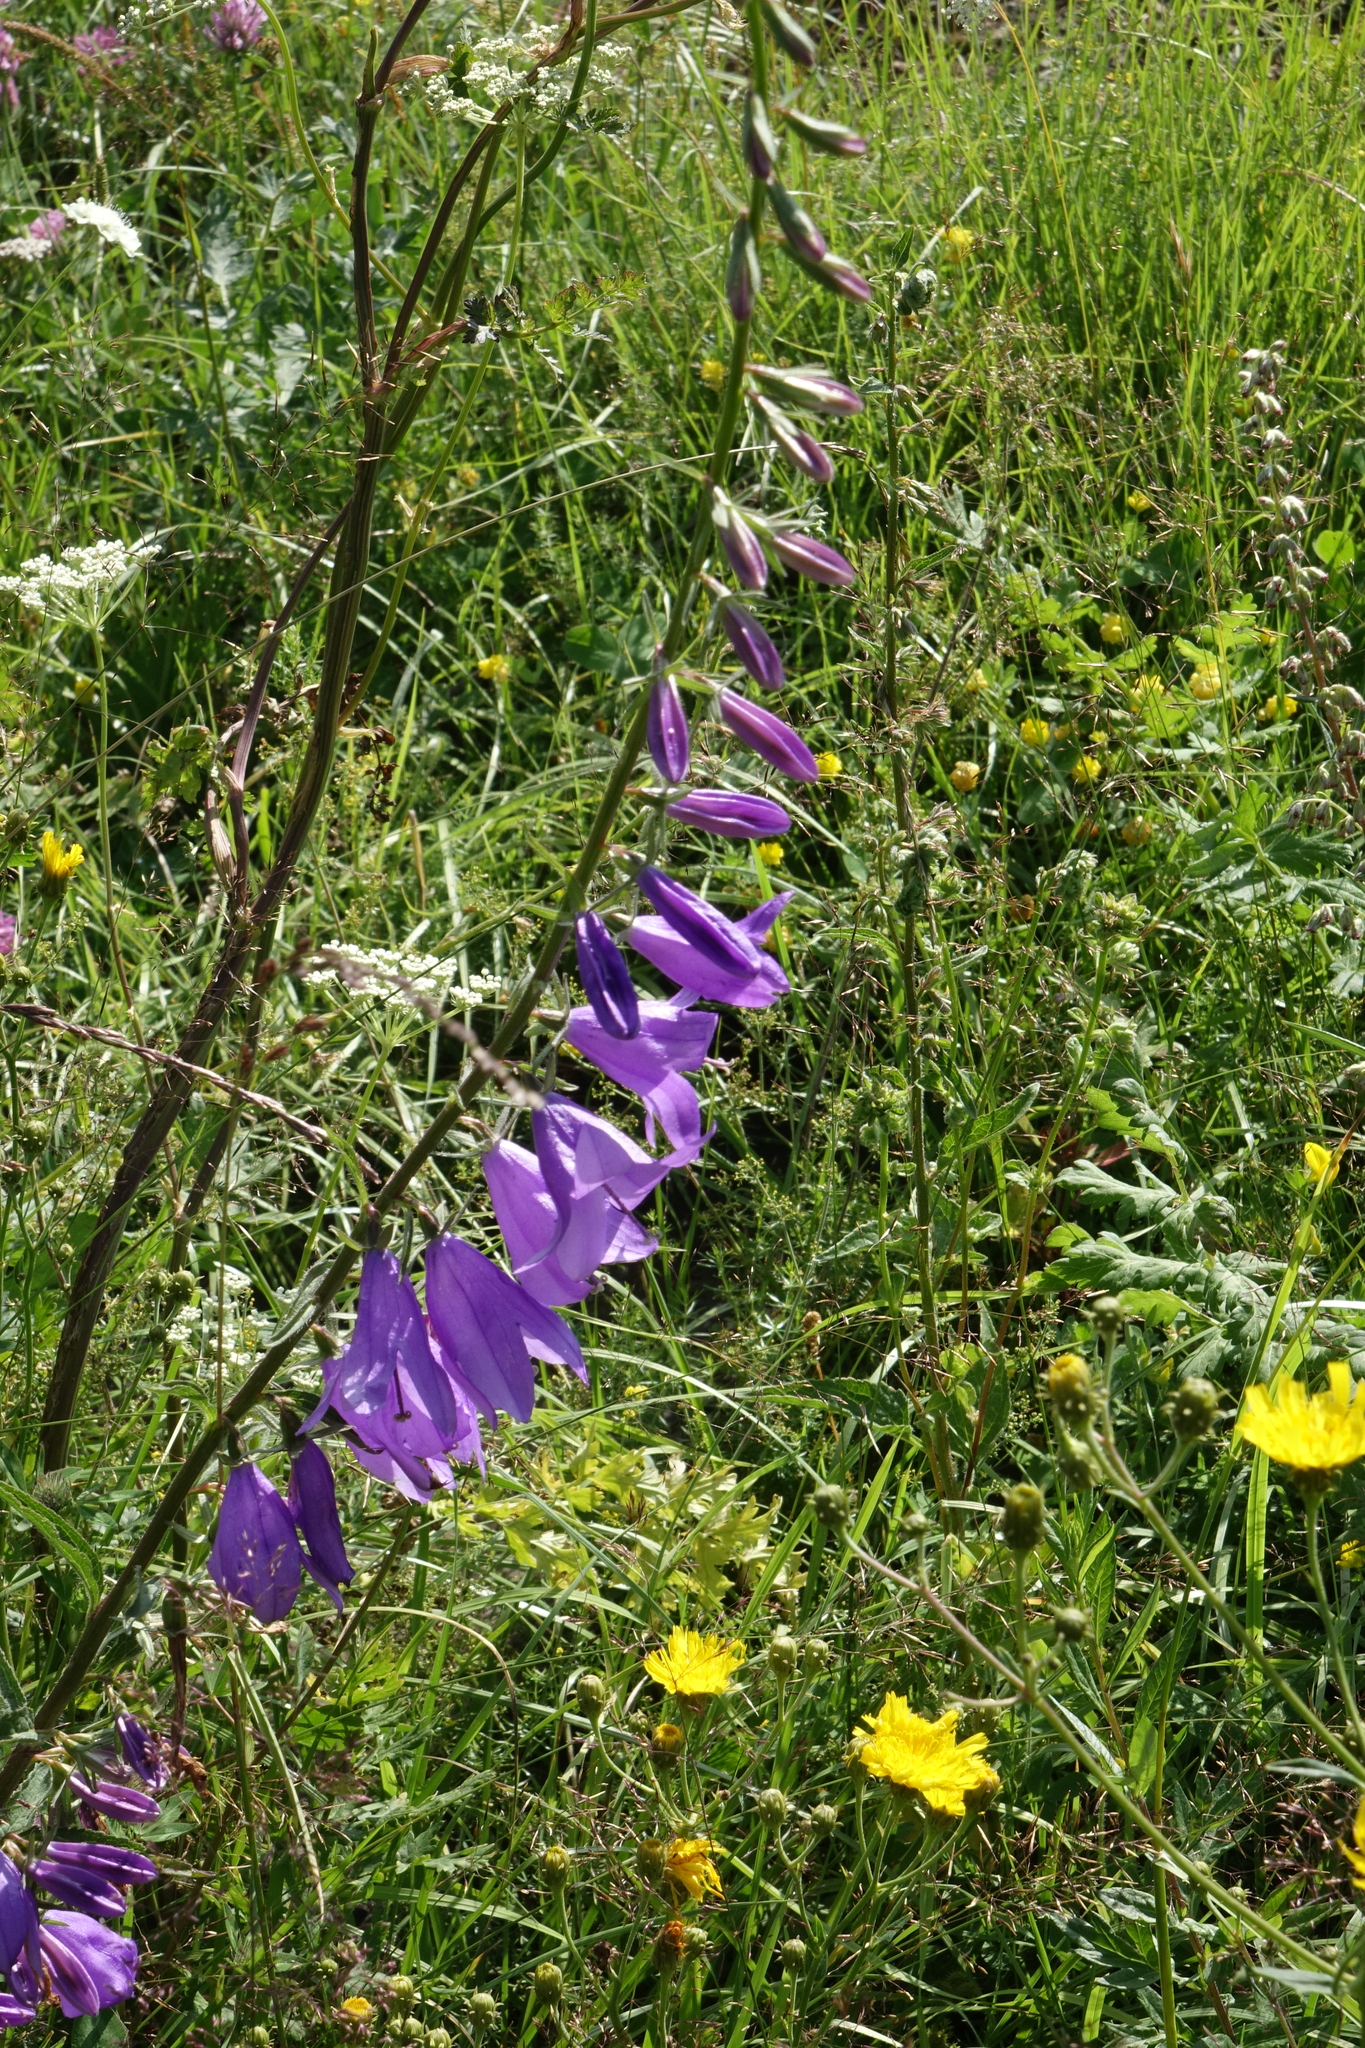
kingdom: Plantae
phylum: Tracheophyta
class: Magnoliopsida
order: Asterales
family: Campanulaceae
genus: Campanula
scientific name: Campanula rapunculoides
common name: Creeping bellflower
